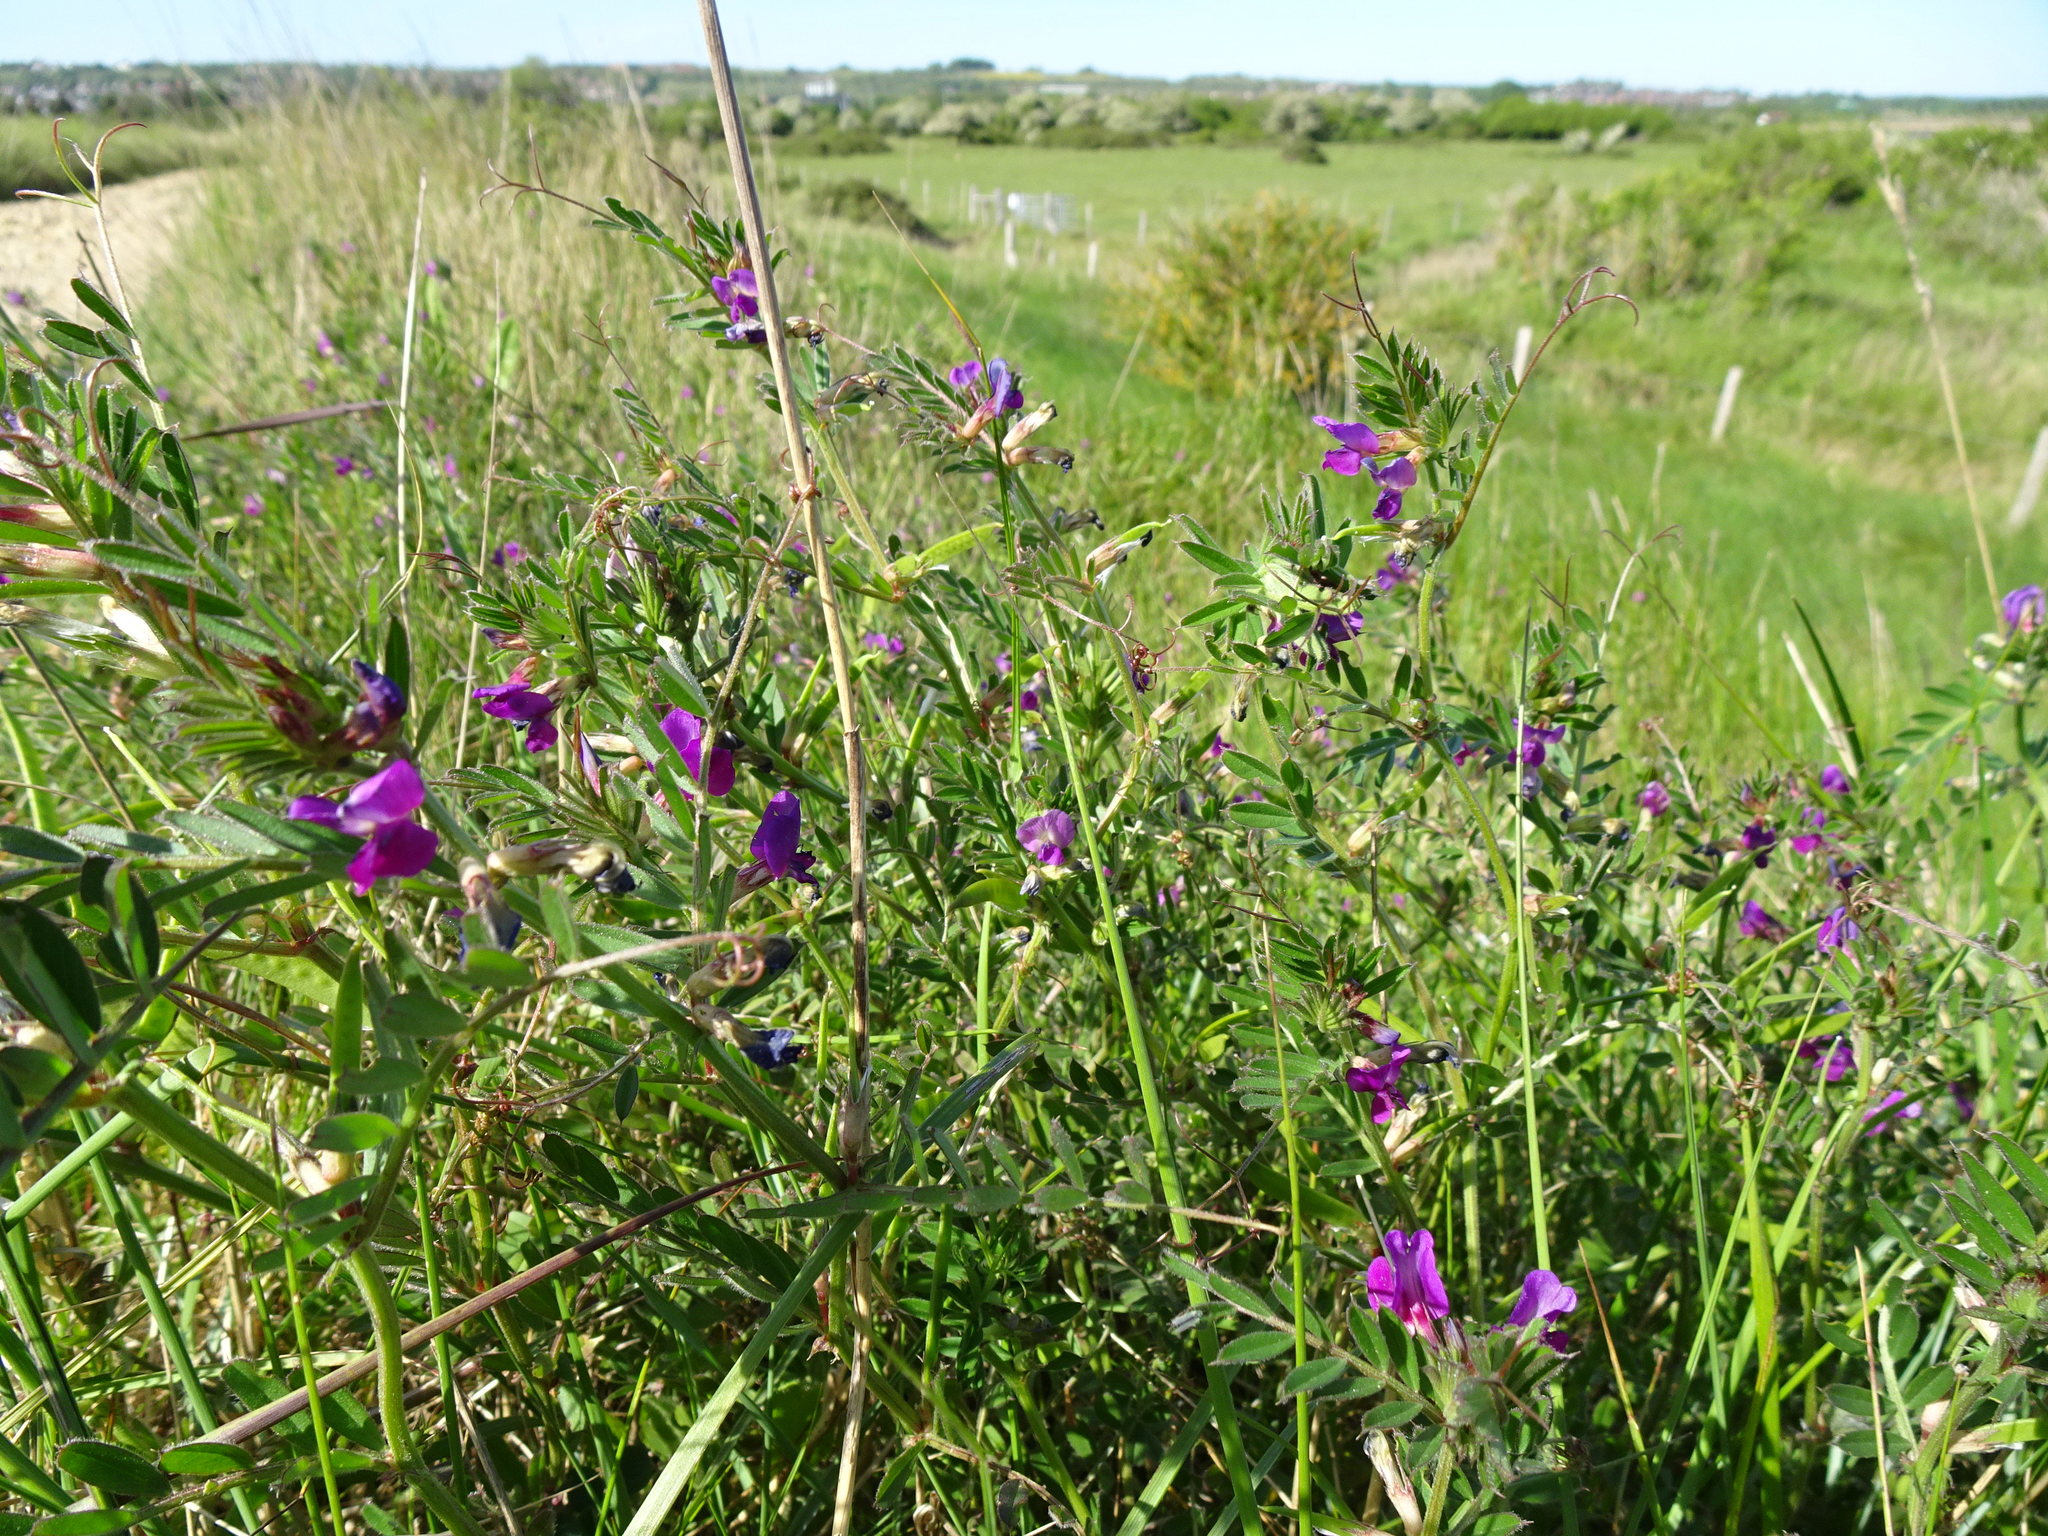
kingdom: Plantae
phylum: Tracheophyta
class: Magnoliopsida
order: Fabales
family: Fabaceae
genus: Vicia
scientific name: Vicia sativa
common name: Garden vetch
